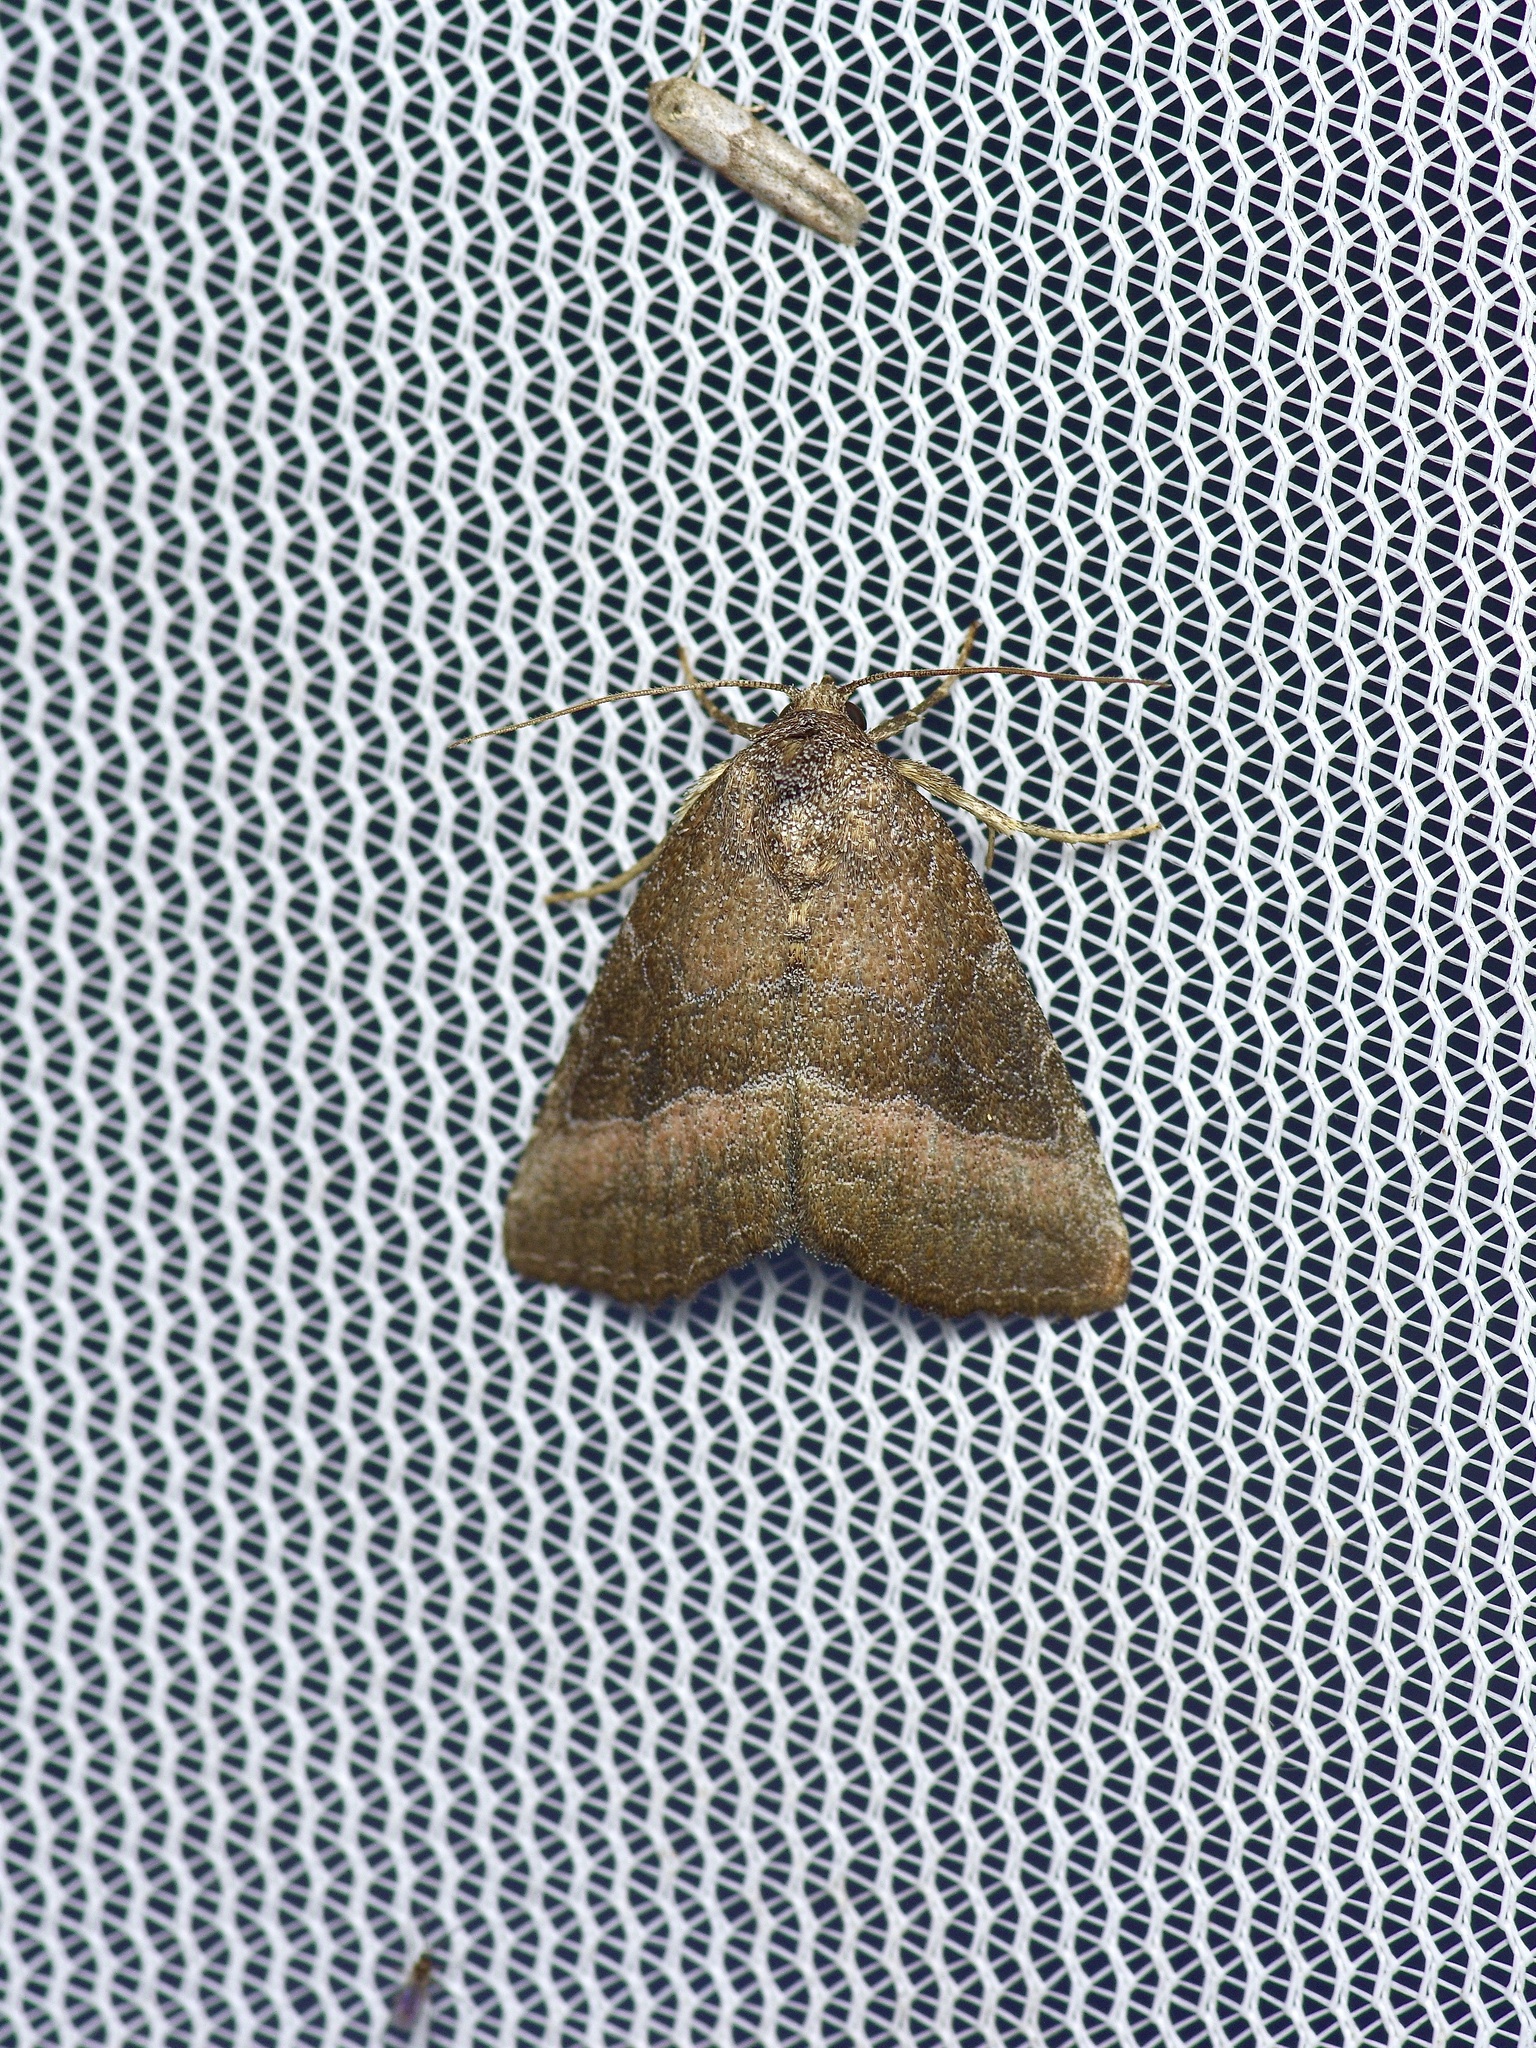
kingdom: Animalia
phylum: Arthropoda
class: Insecta
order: Lepidoptera
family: Noctuidae
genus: Ogdoconta
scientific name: Ogdoconta cinereola
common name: Common pinkband
